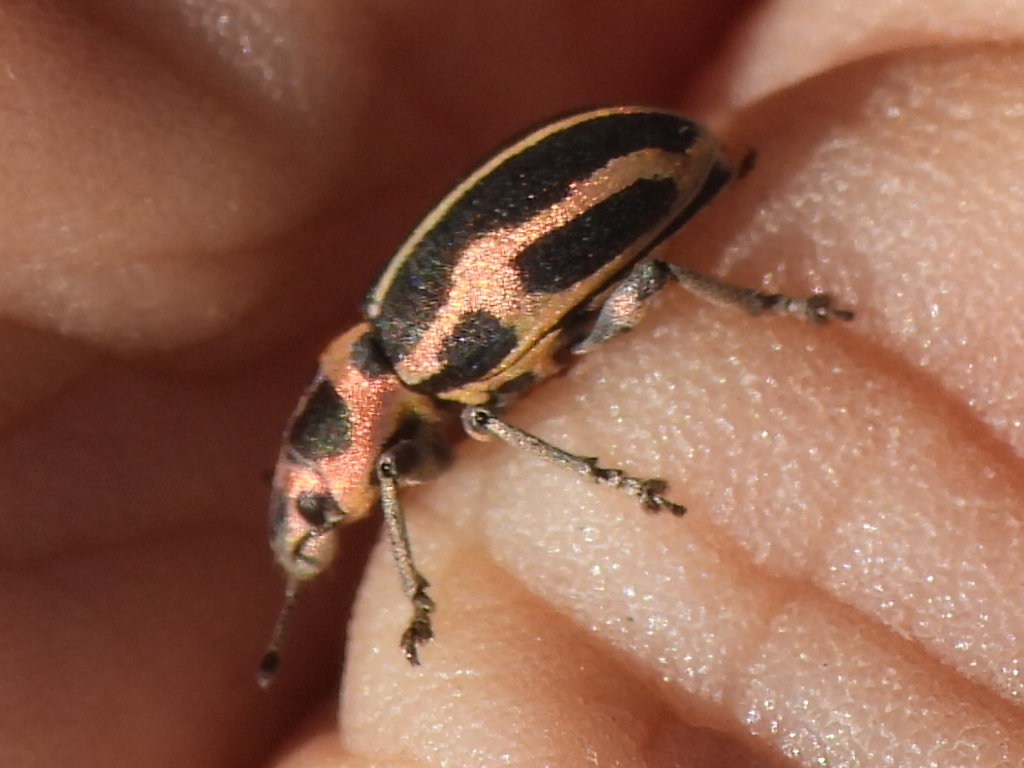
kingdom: Animalia
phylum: Arthropoda
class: Insecta
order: Coleoptera
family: Curculionidae
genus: Eudiagogus
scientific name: Eudiagogus pulcher
